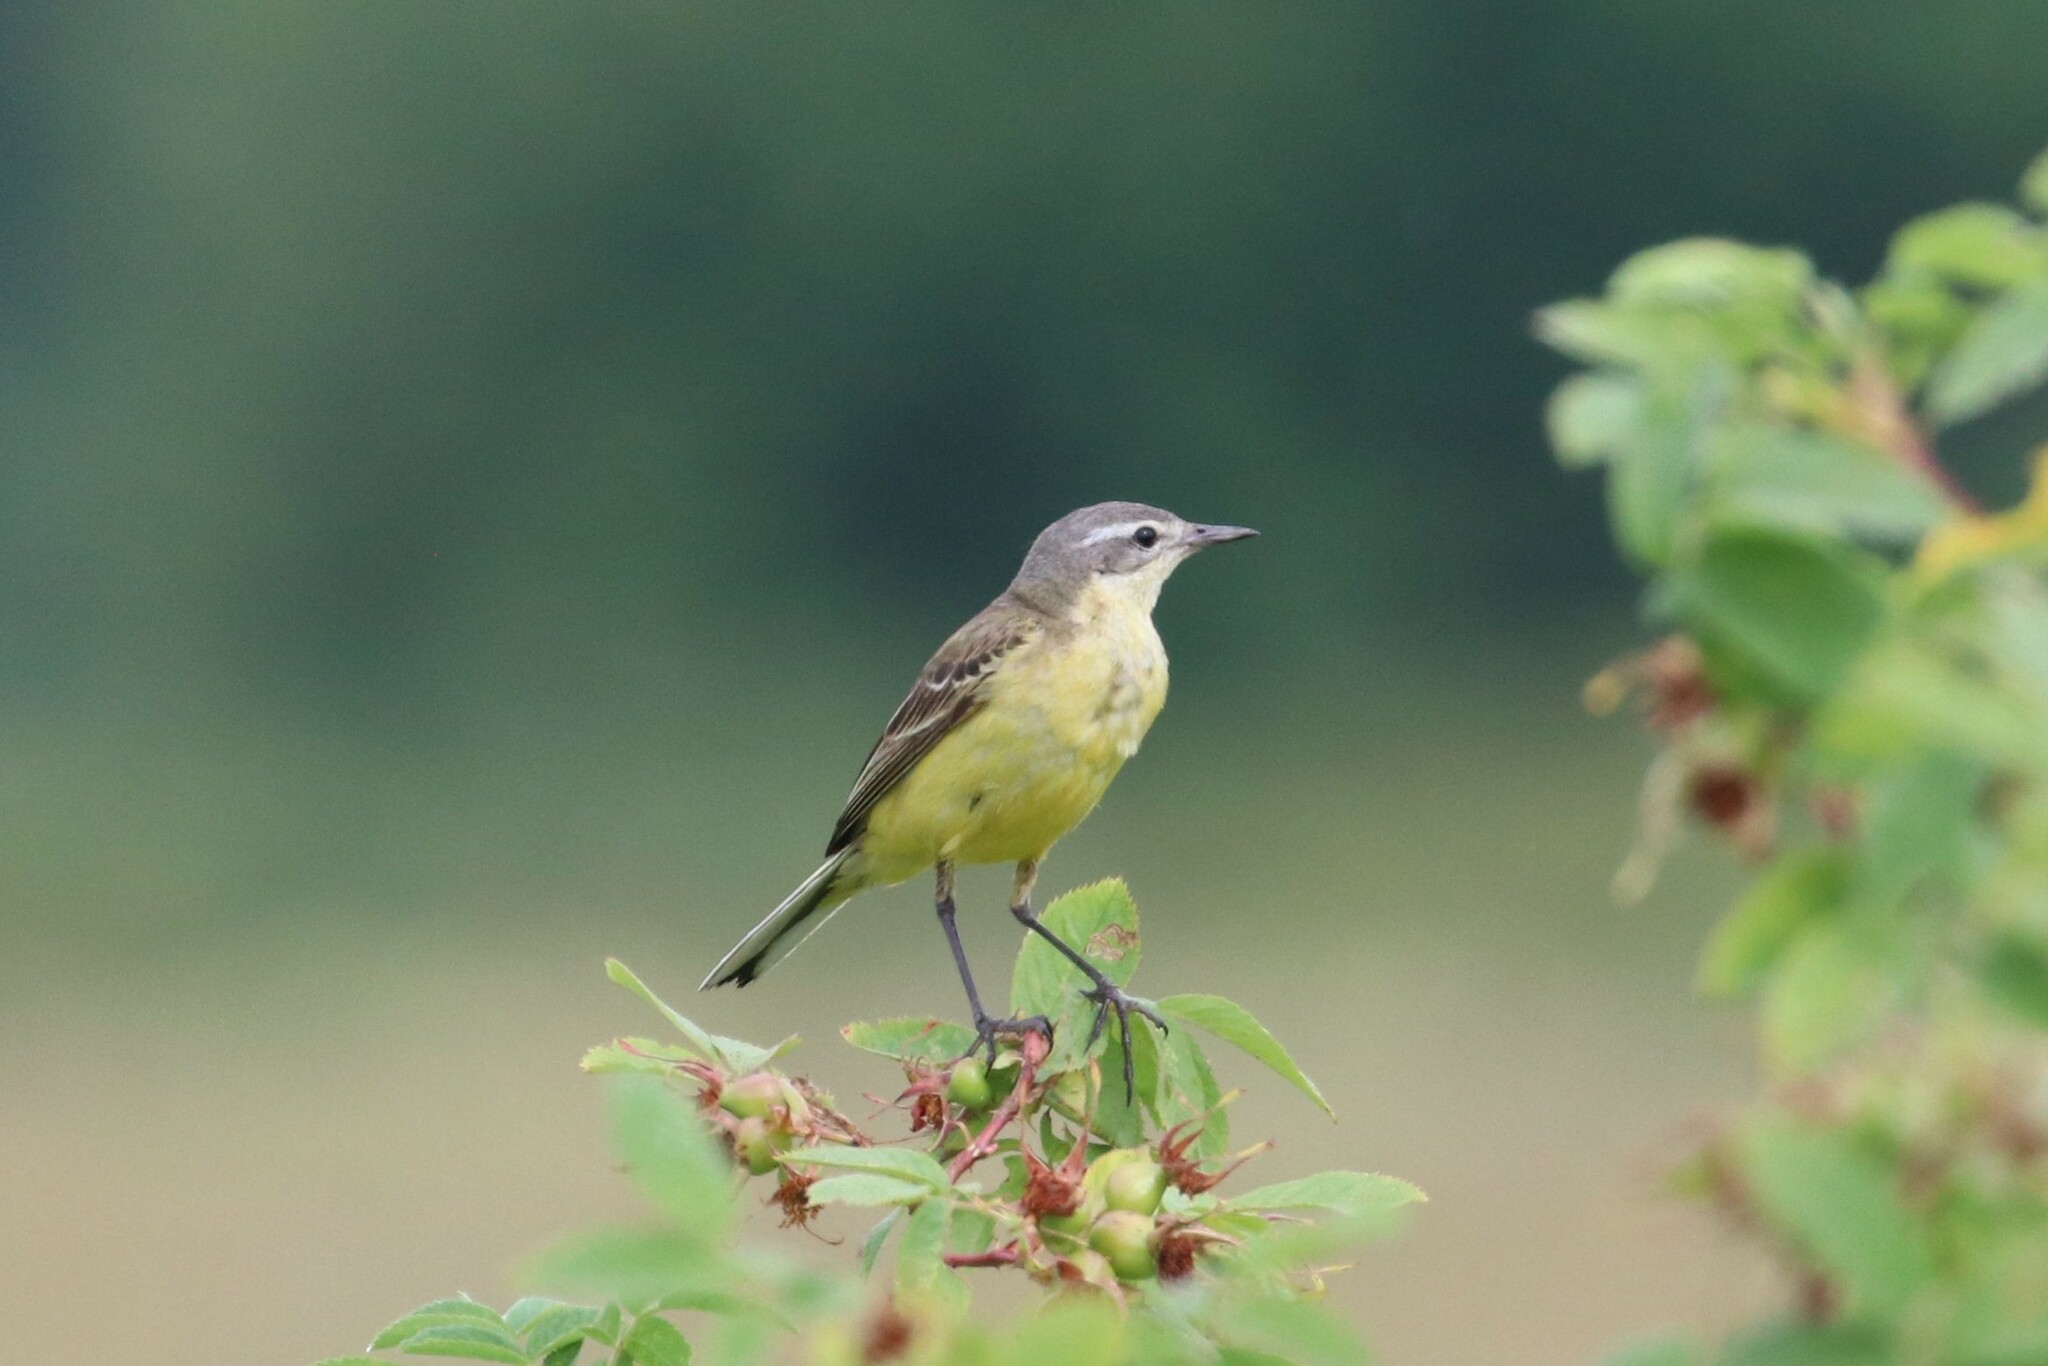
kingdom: Animalia
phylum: Chordata
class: Aves
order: Passeriformes
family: Motacillidae
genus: Motacilla
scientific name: Motacilla flava
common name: Western yellow wagtail
